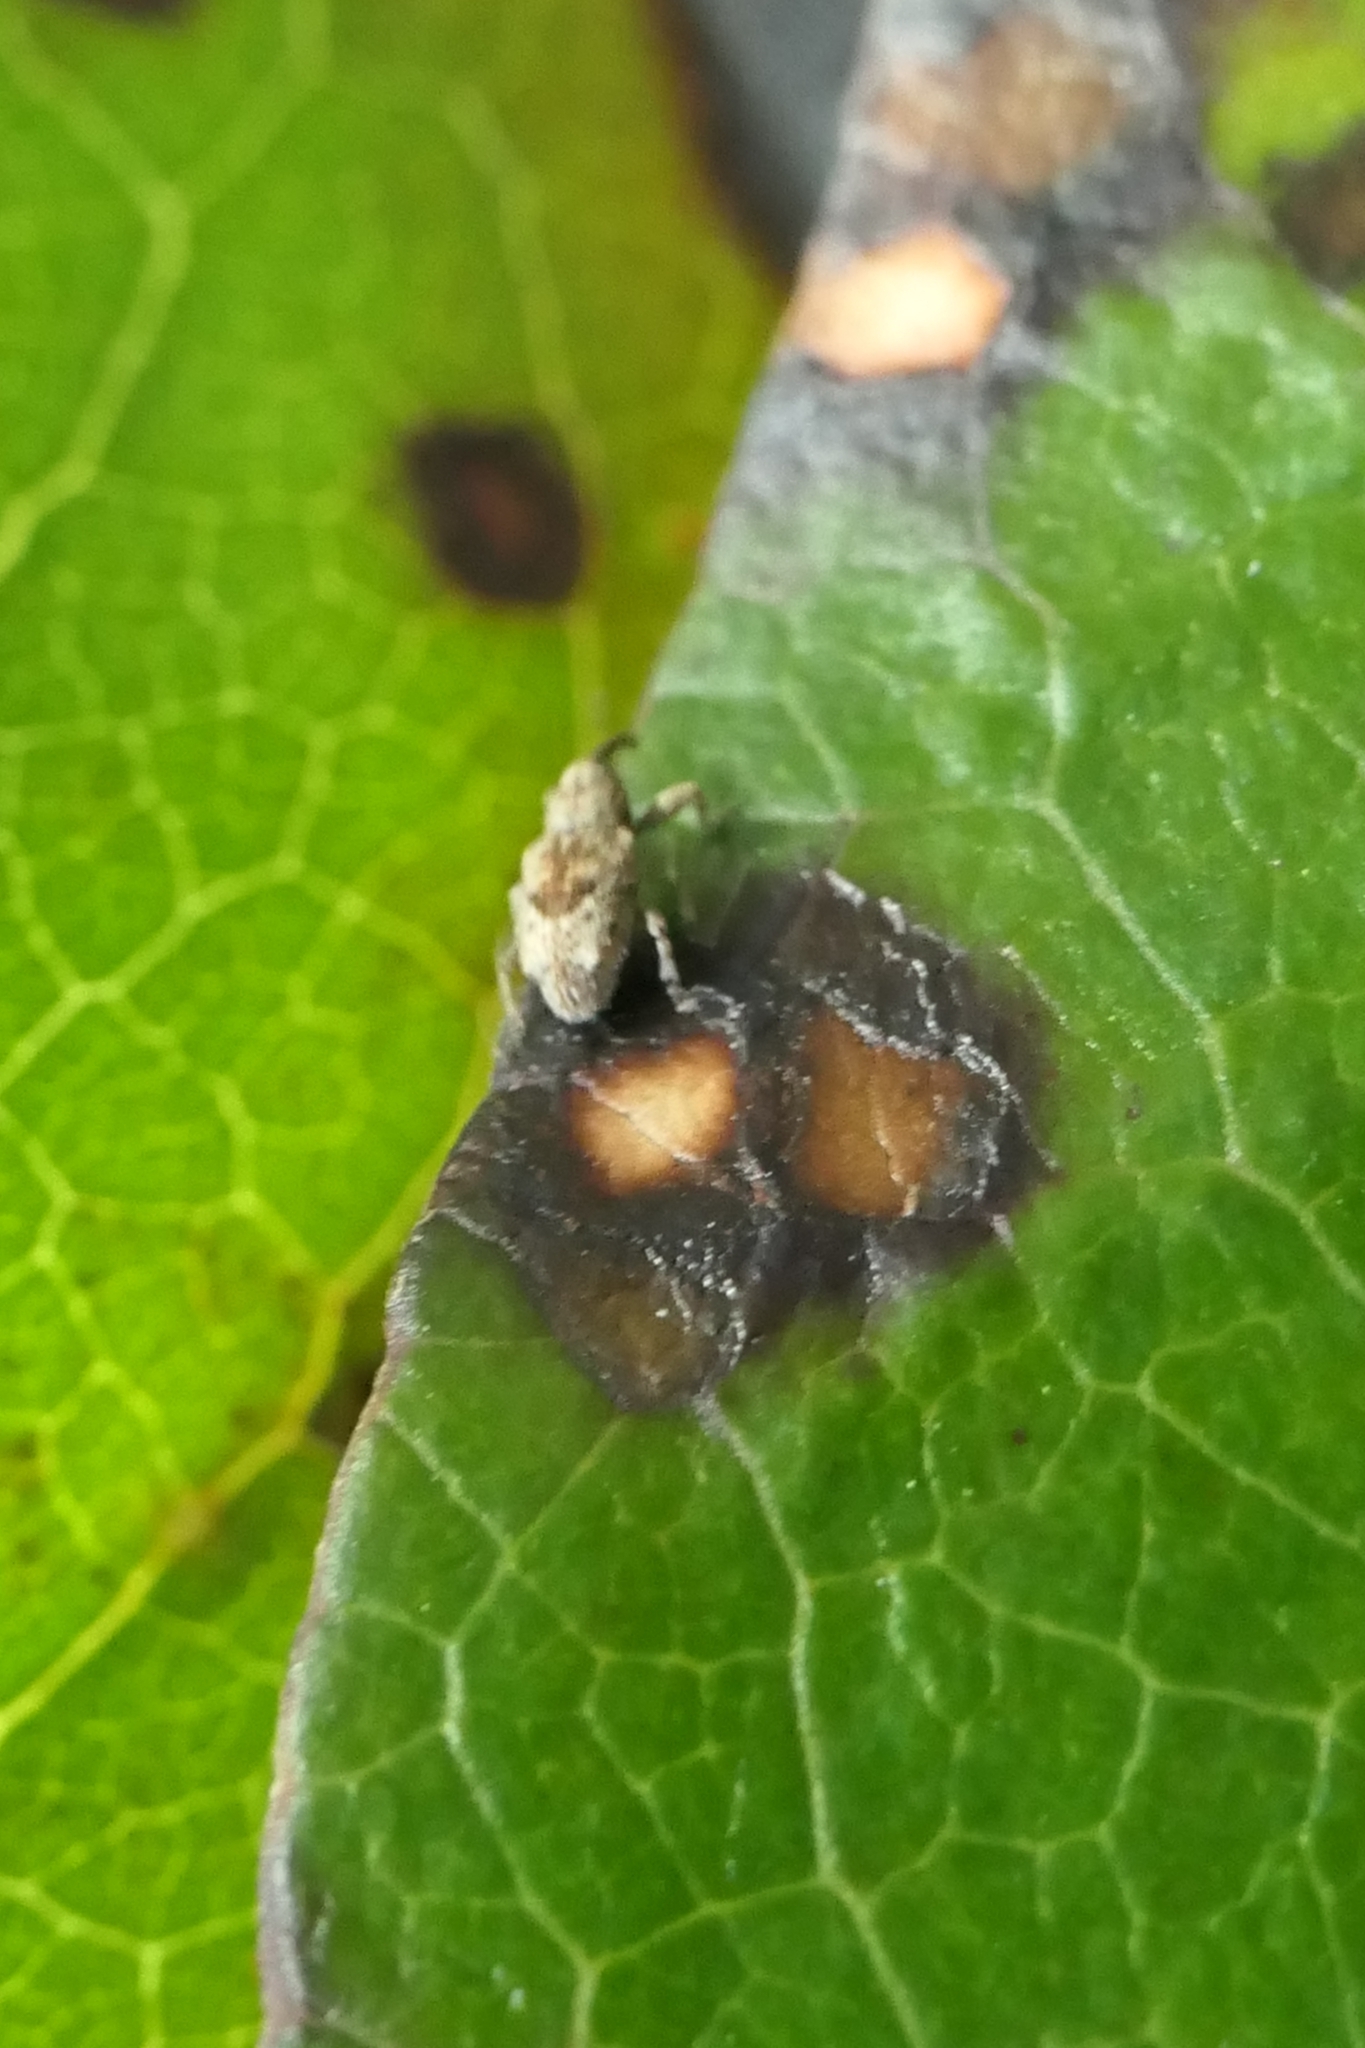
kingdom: Animalia
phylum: Arthropoda
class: Insecta
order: Coleoptera
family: Curculionidae
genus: Praolepra
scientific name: Praolepra infusca
